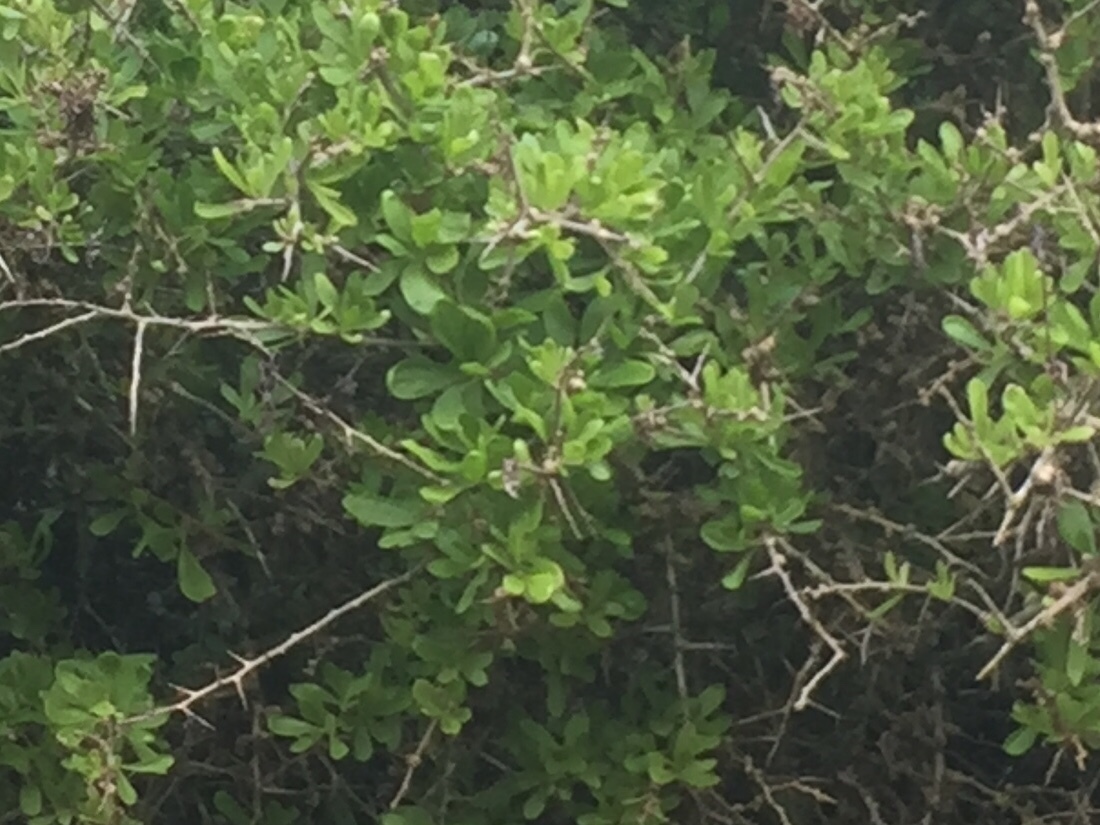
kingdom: Plantae
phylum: Tracheophyta
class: Magnoliopsida
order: Solanales
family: Solanaceae
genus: Lycium
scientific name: Lycium ferocissimum
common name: African boxthorn
